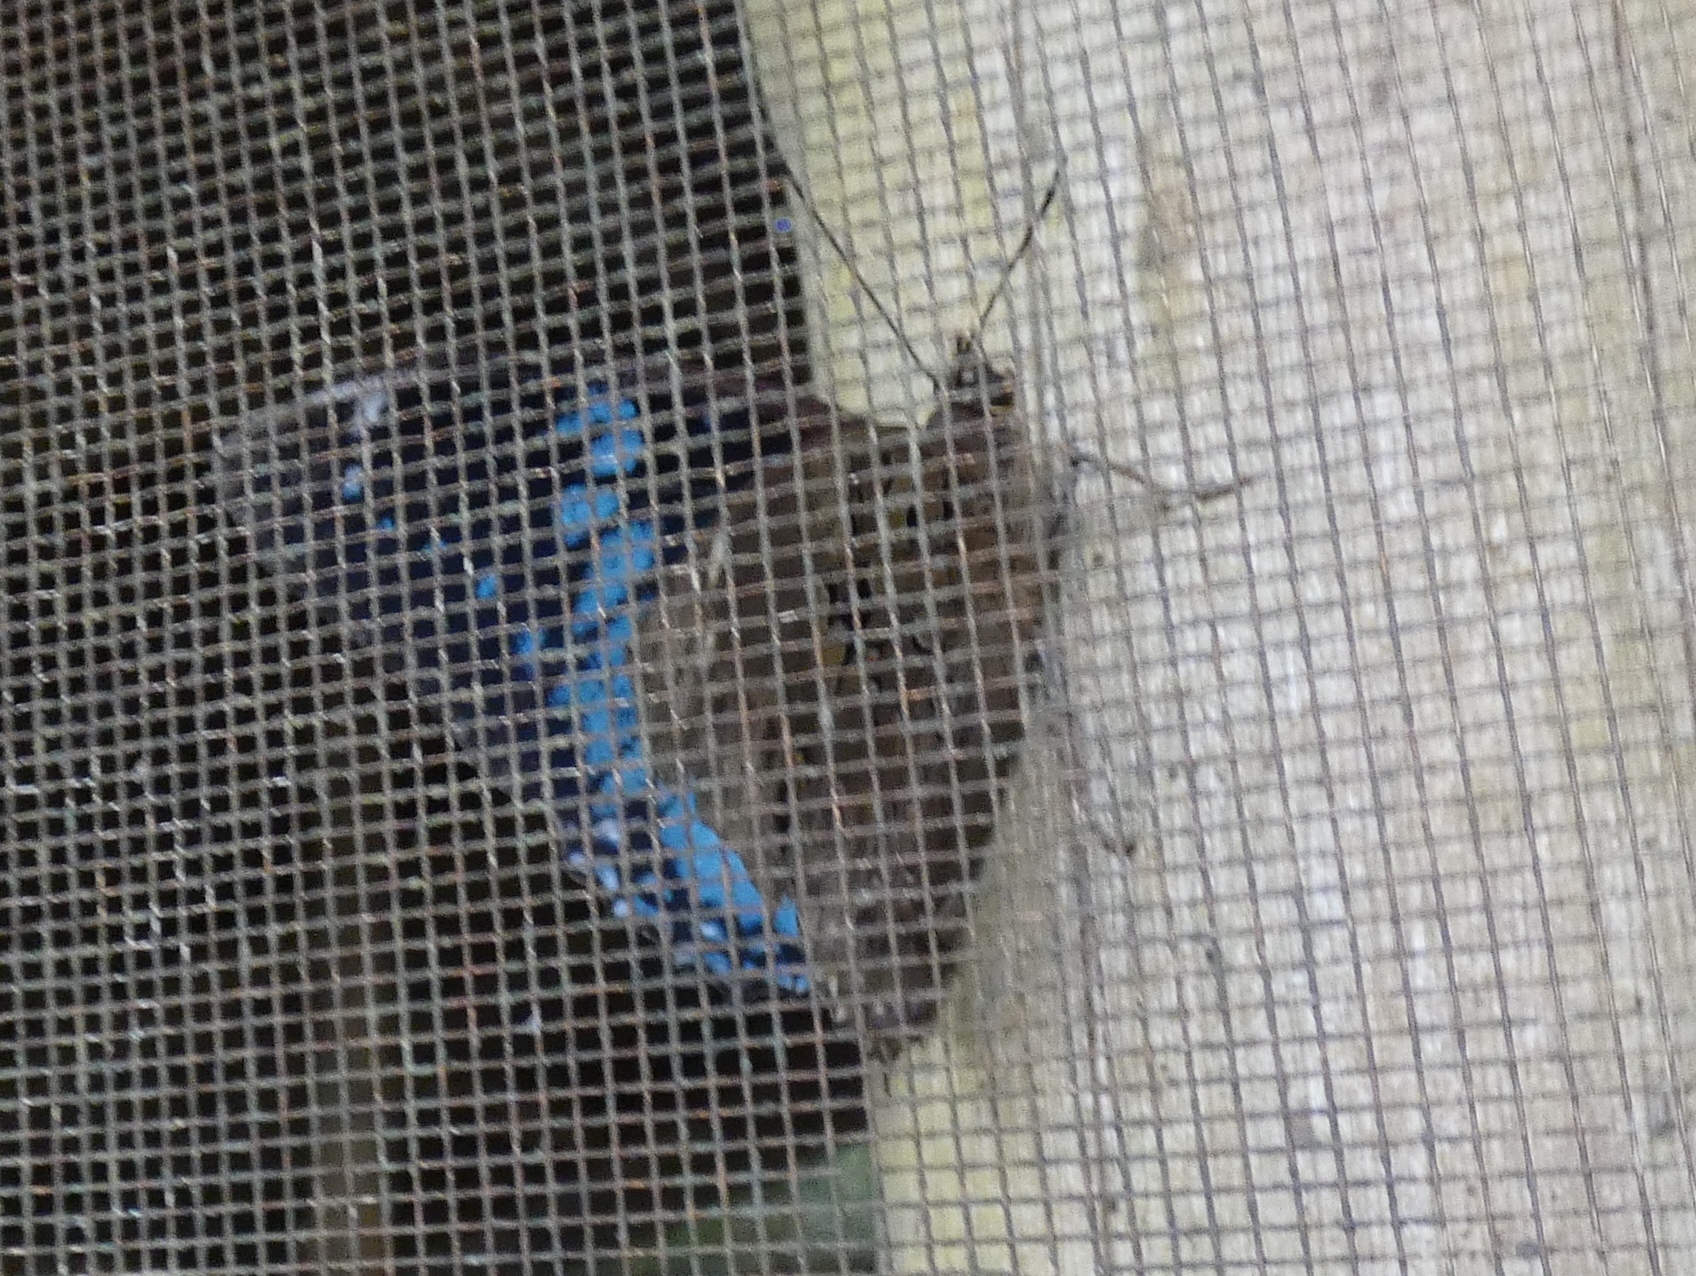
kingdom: Animalia
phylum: Arthropoda
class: Insecta
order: Lepidoptera
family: Nymphalidae
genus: Charaxes
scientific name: Charaxes smaragdalis
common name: Western blue charaxes
